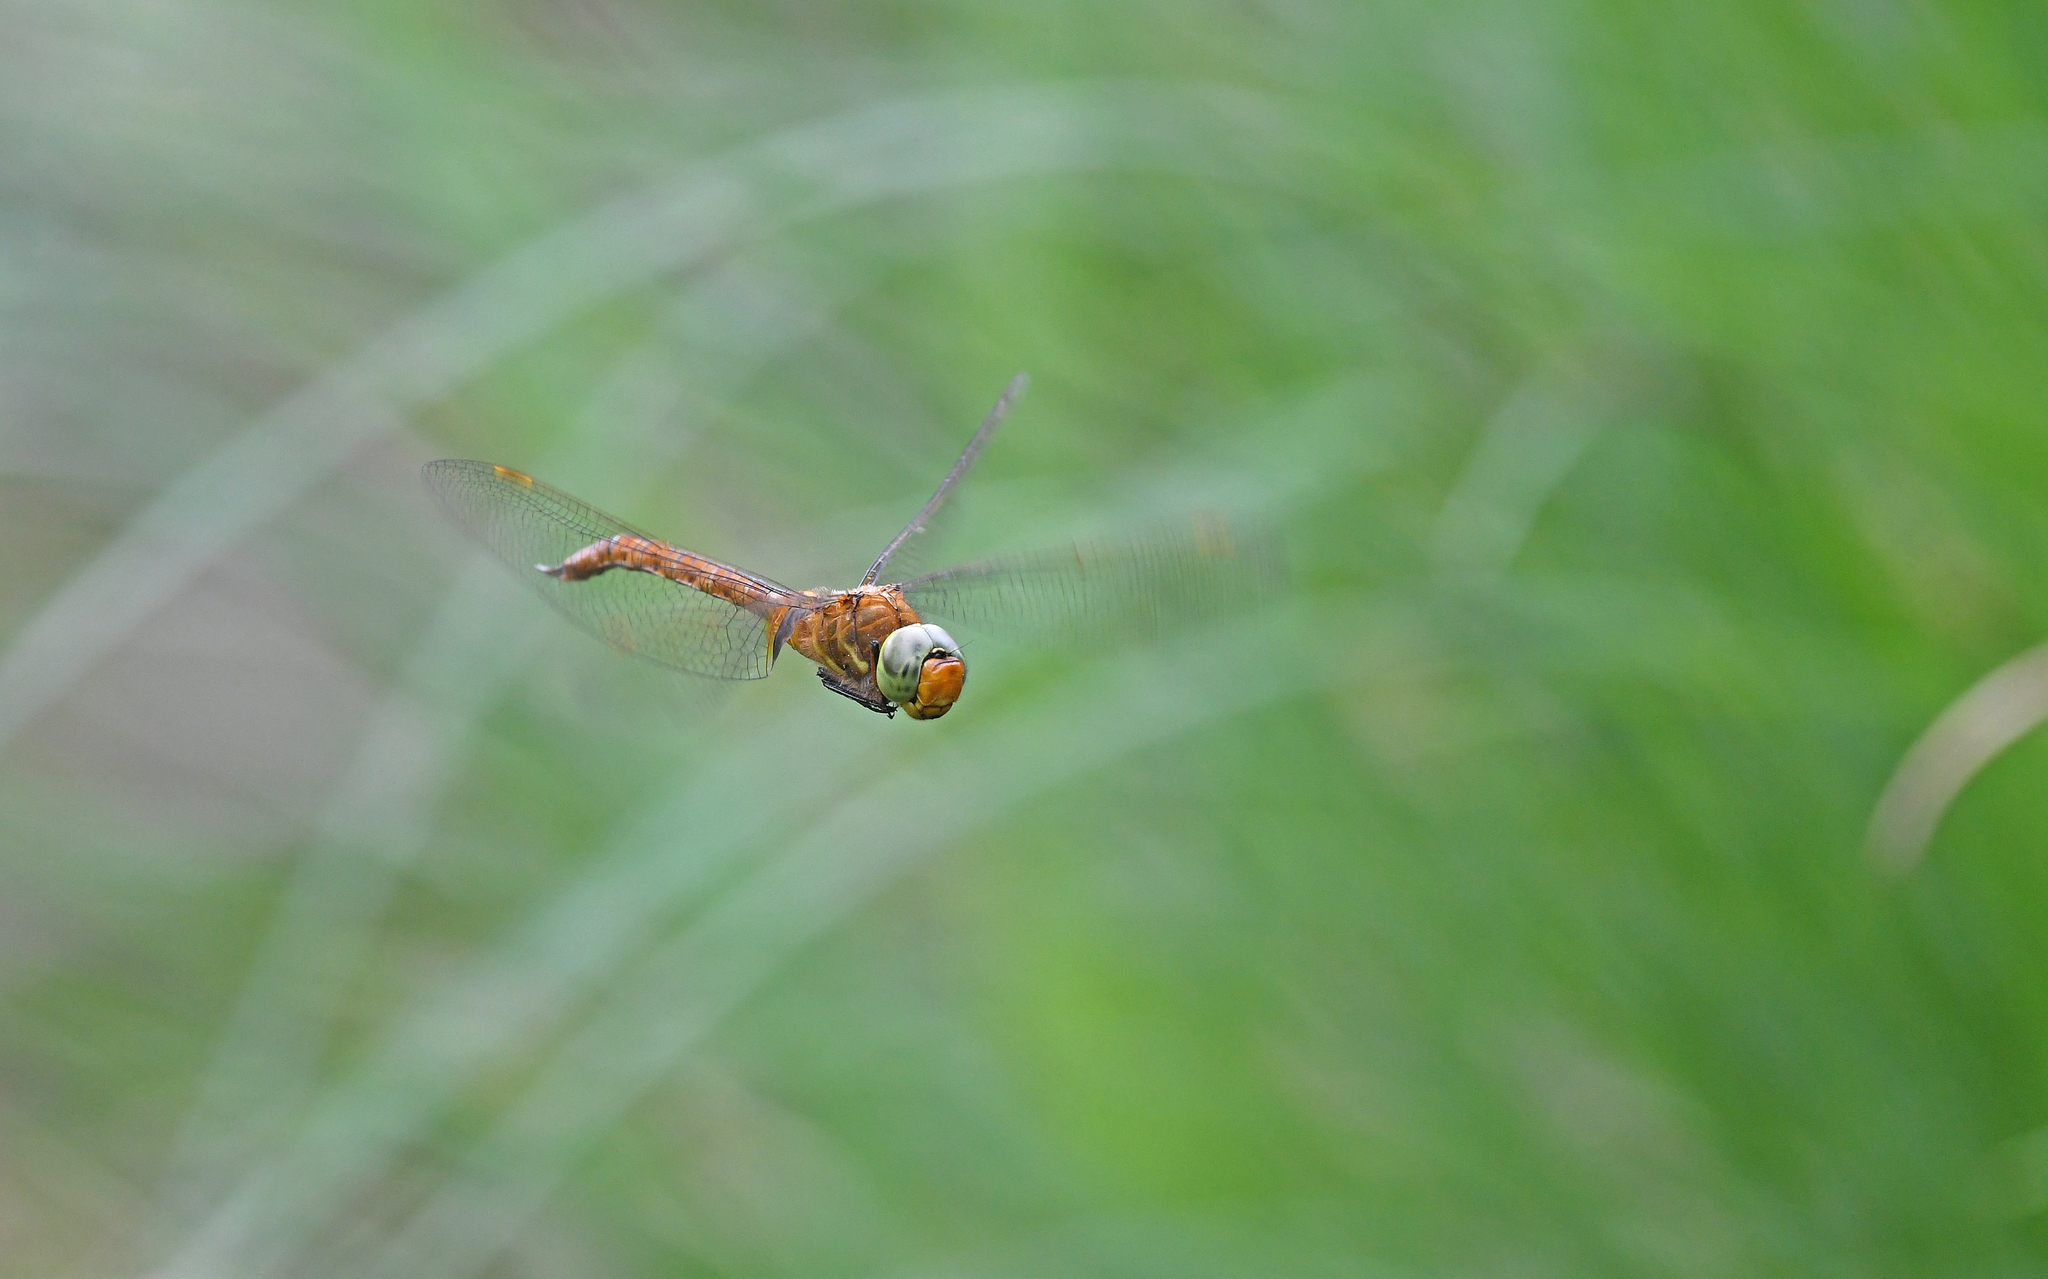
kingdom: Animalia
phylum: Arthropoda
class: Insecta
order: Odonata
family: Aeshnidae
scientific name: Aeshnidae
